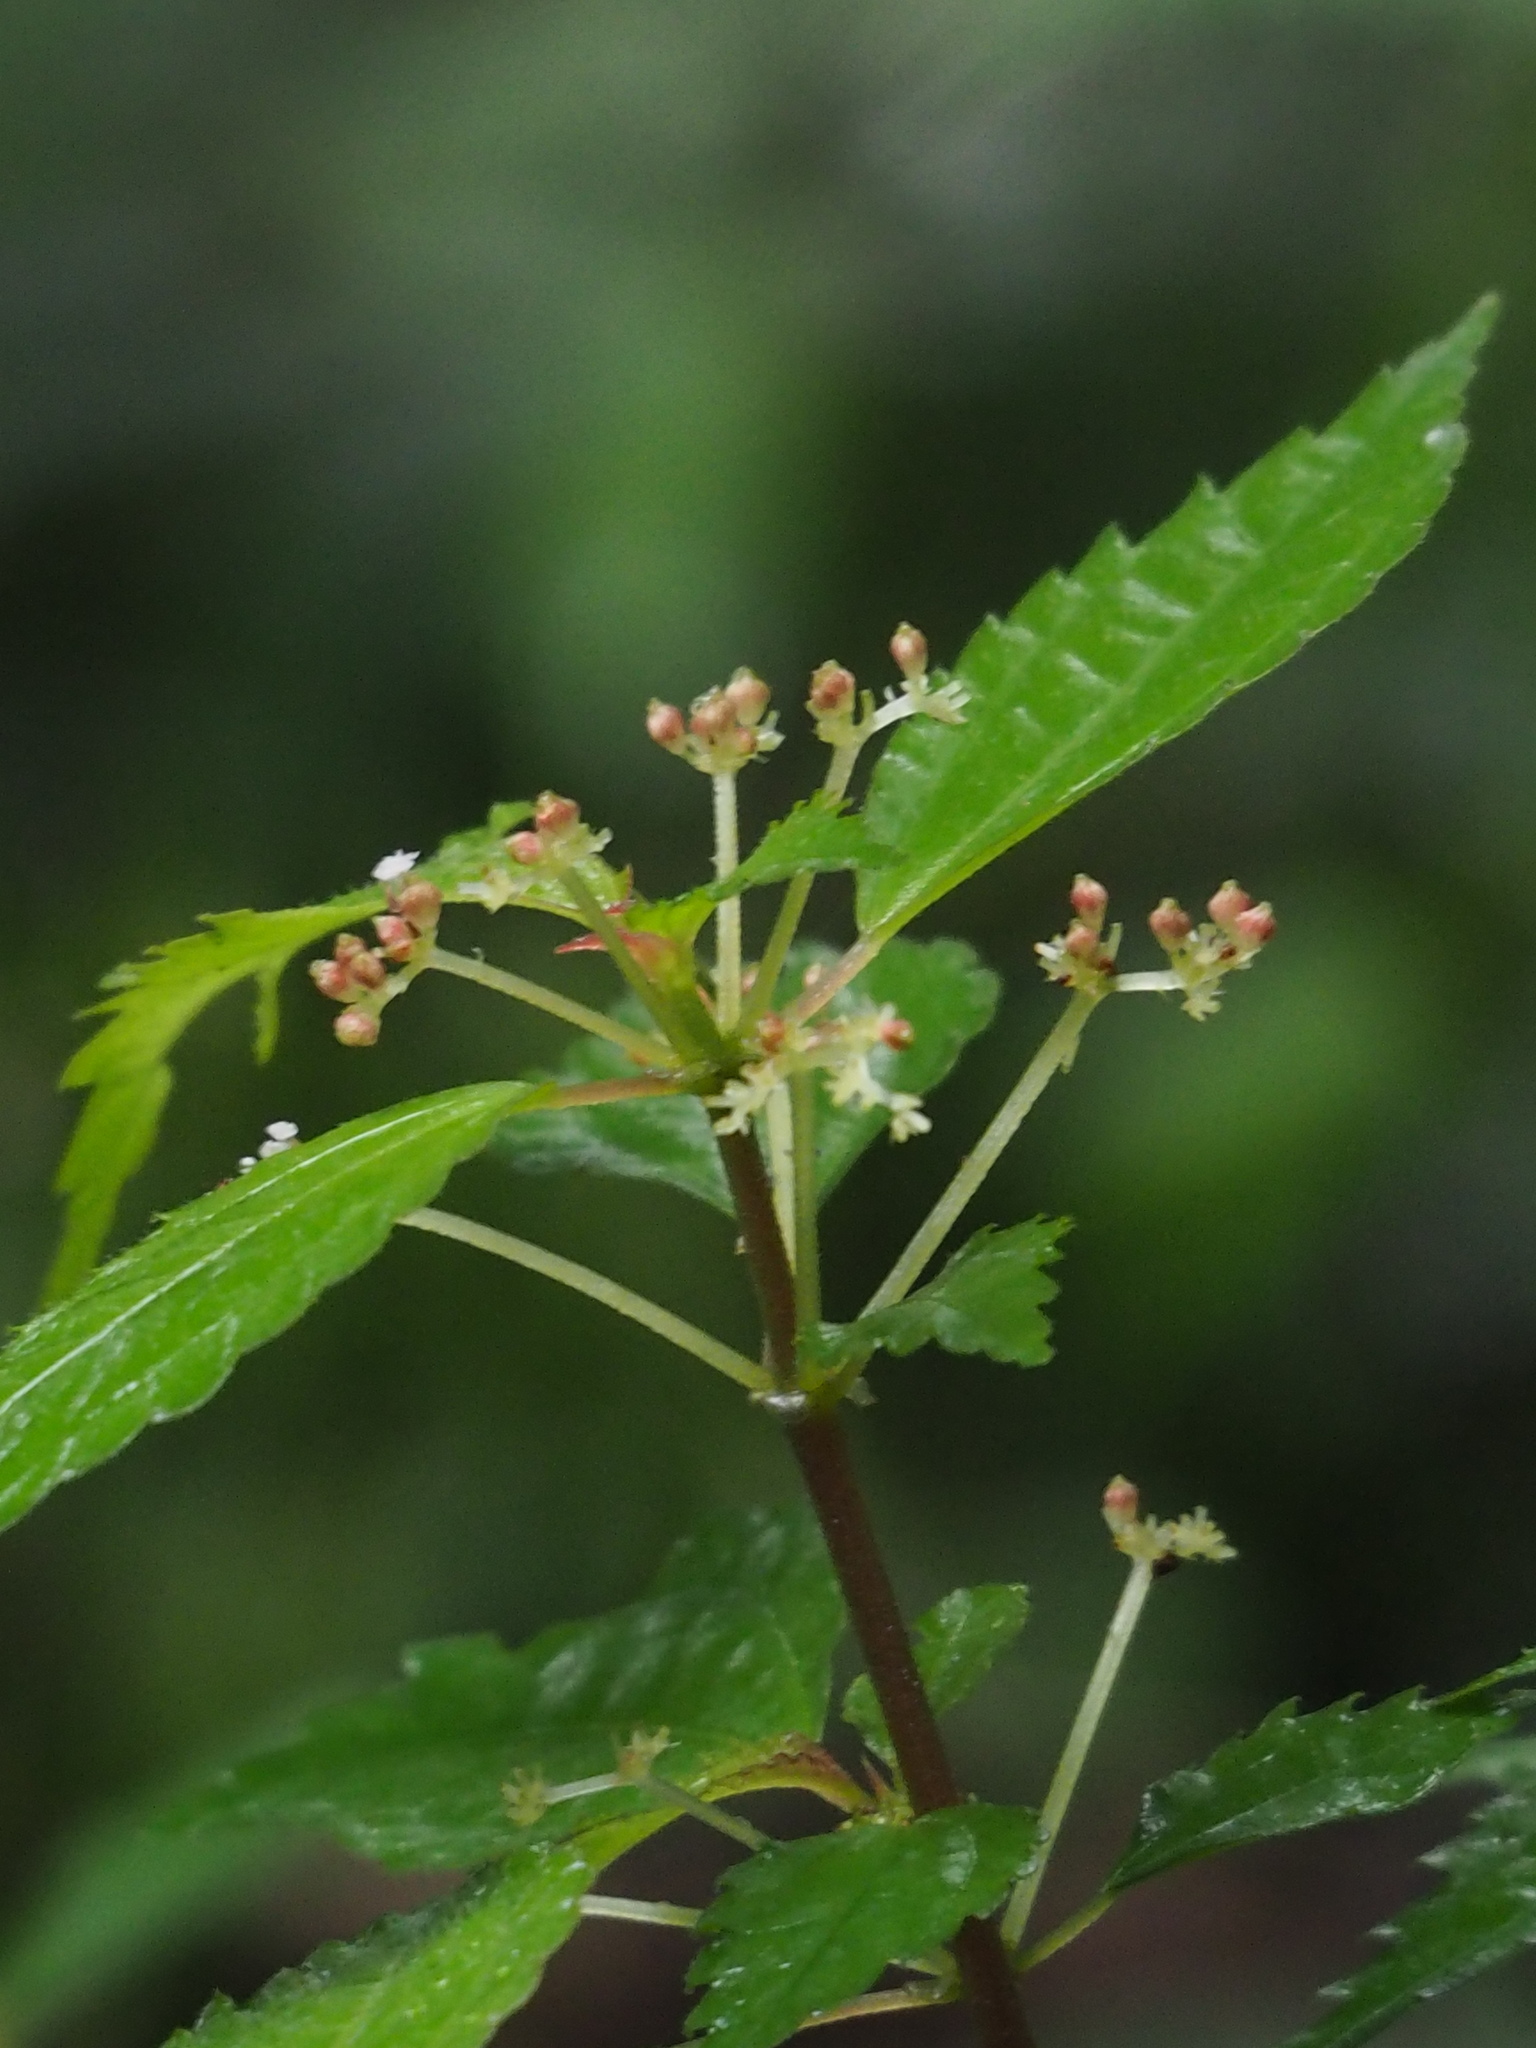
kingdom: Plantae
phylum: Tracheophyta
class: Magnoliopsida
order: Rosales
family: Urticaceae
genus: Pilea
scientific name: Pilea aquarum
